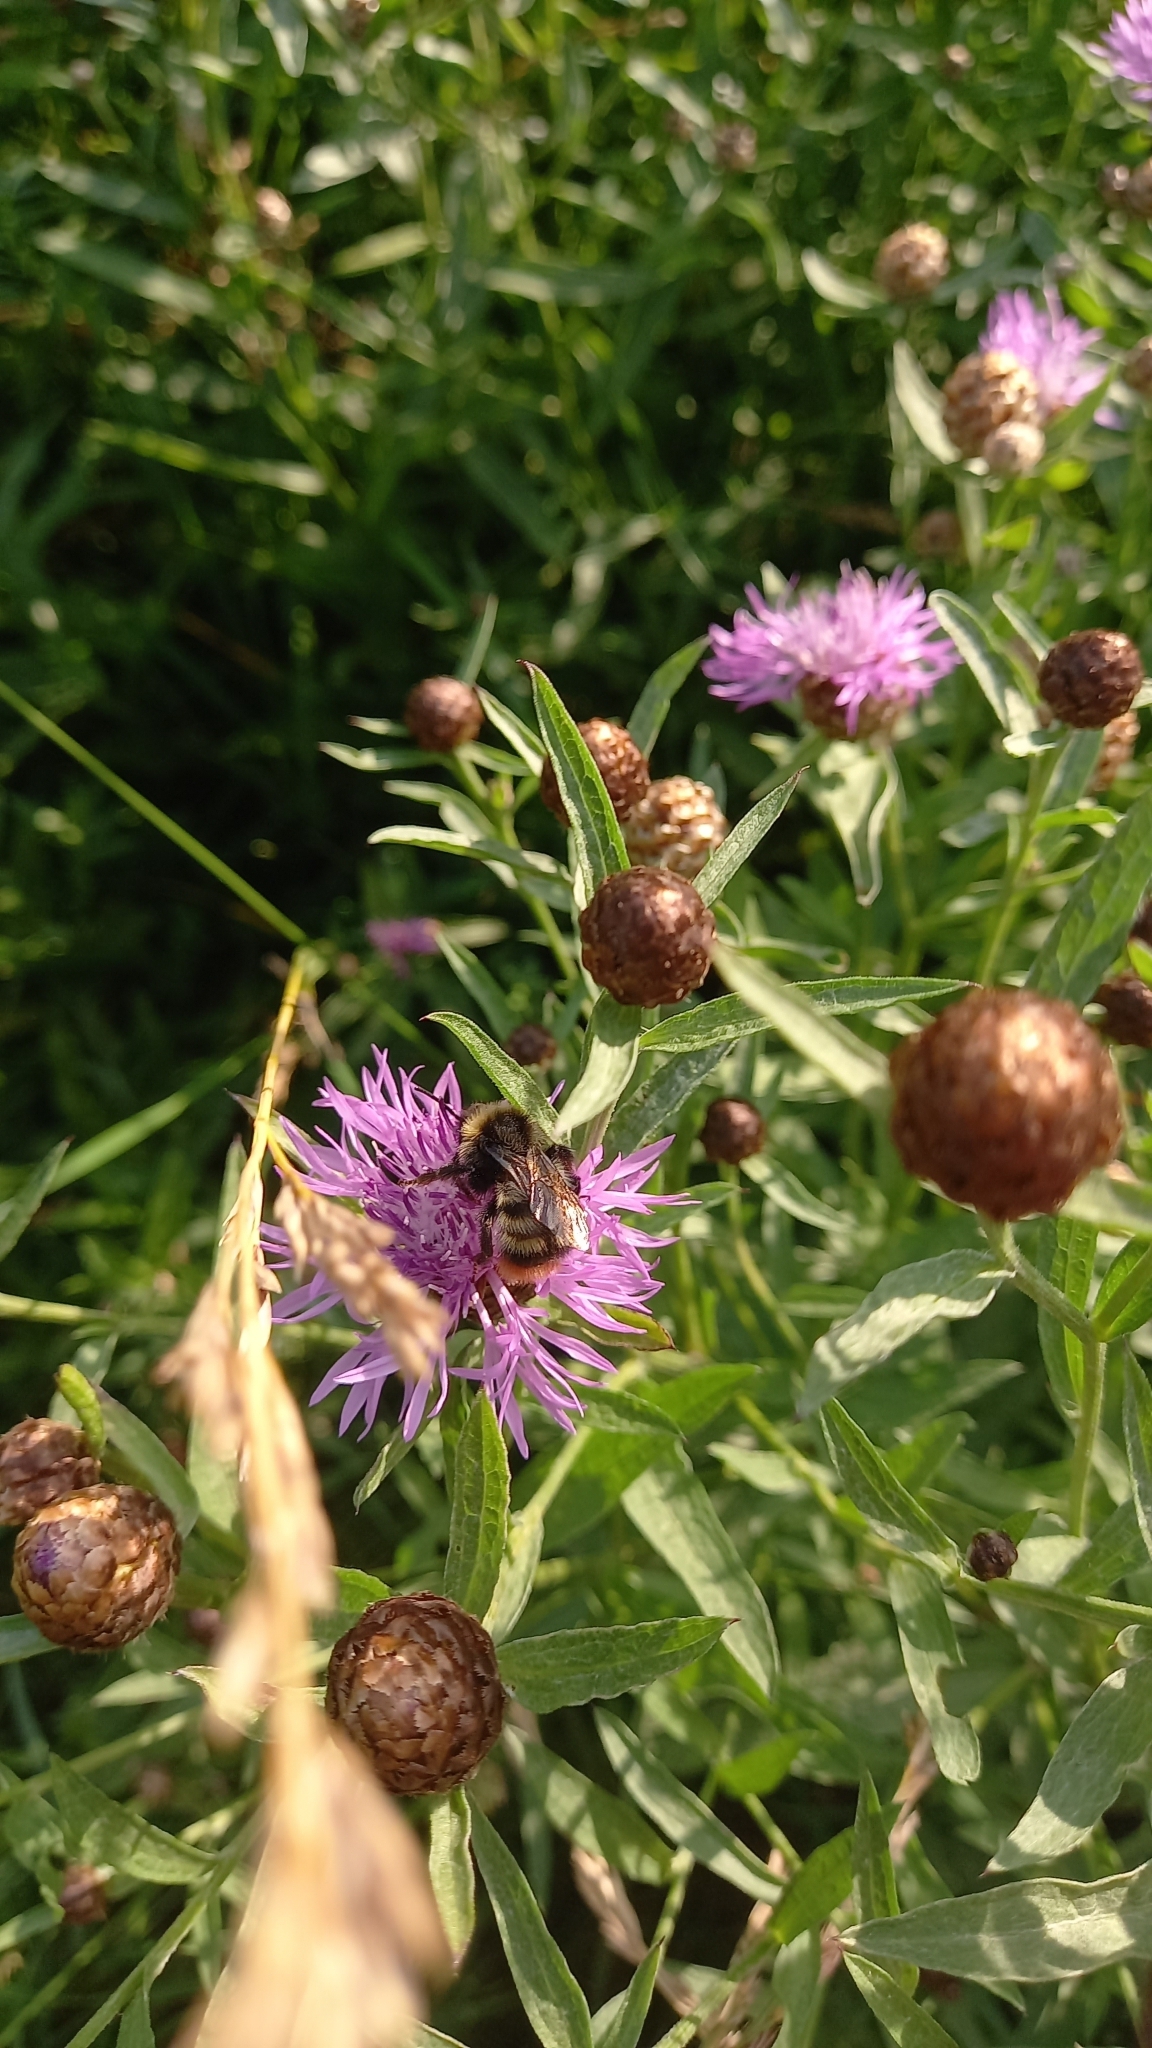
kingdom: Animalia
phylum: Arthropoda
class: Insecta
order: Hymenoptera
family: Apidae
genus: Bombus
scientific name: Bombus rupestris
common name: Hill cuckoo-bee
